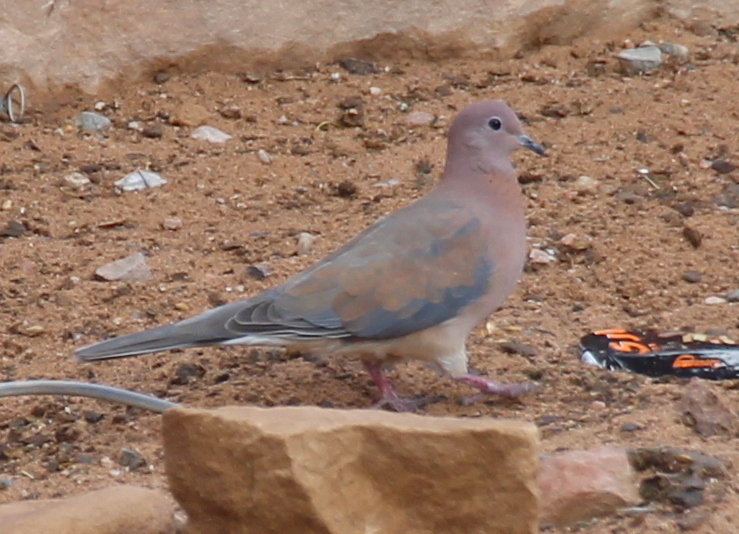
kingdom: Animalia
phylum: Chordata
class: Aves
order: Columbiformes
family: Columbidae
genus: Spilopelia
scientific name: Spilopelia senegalensis
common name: Laughing dove
